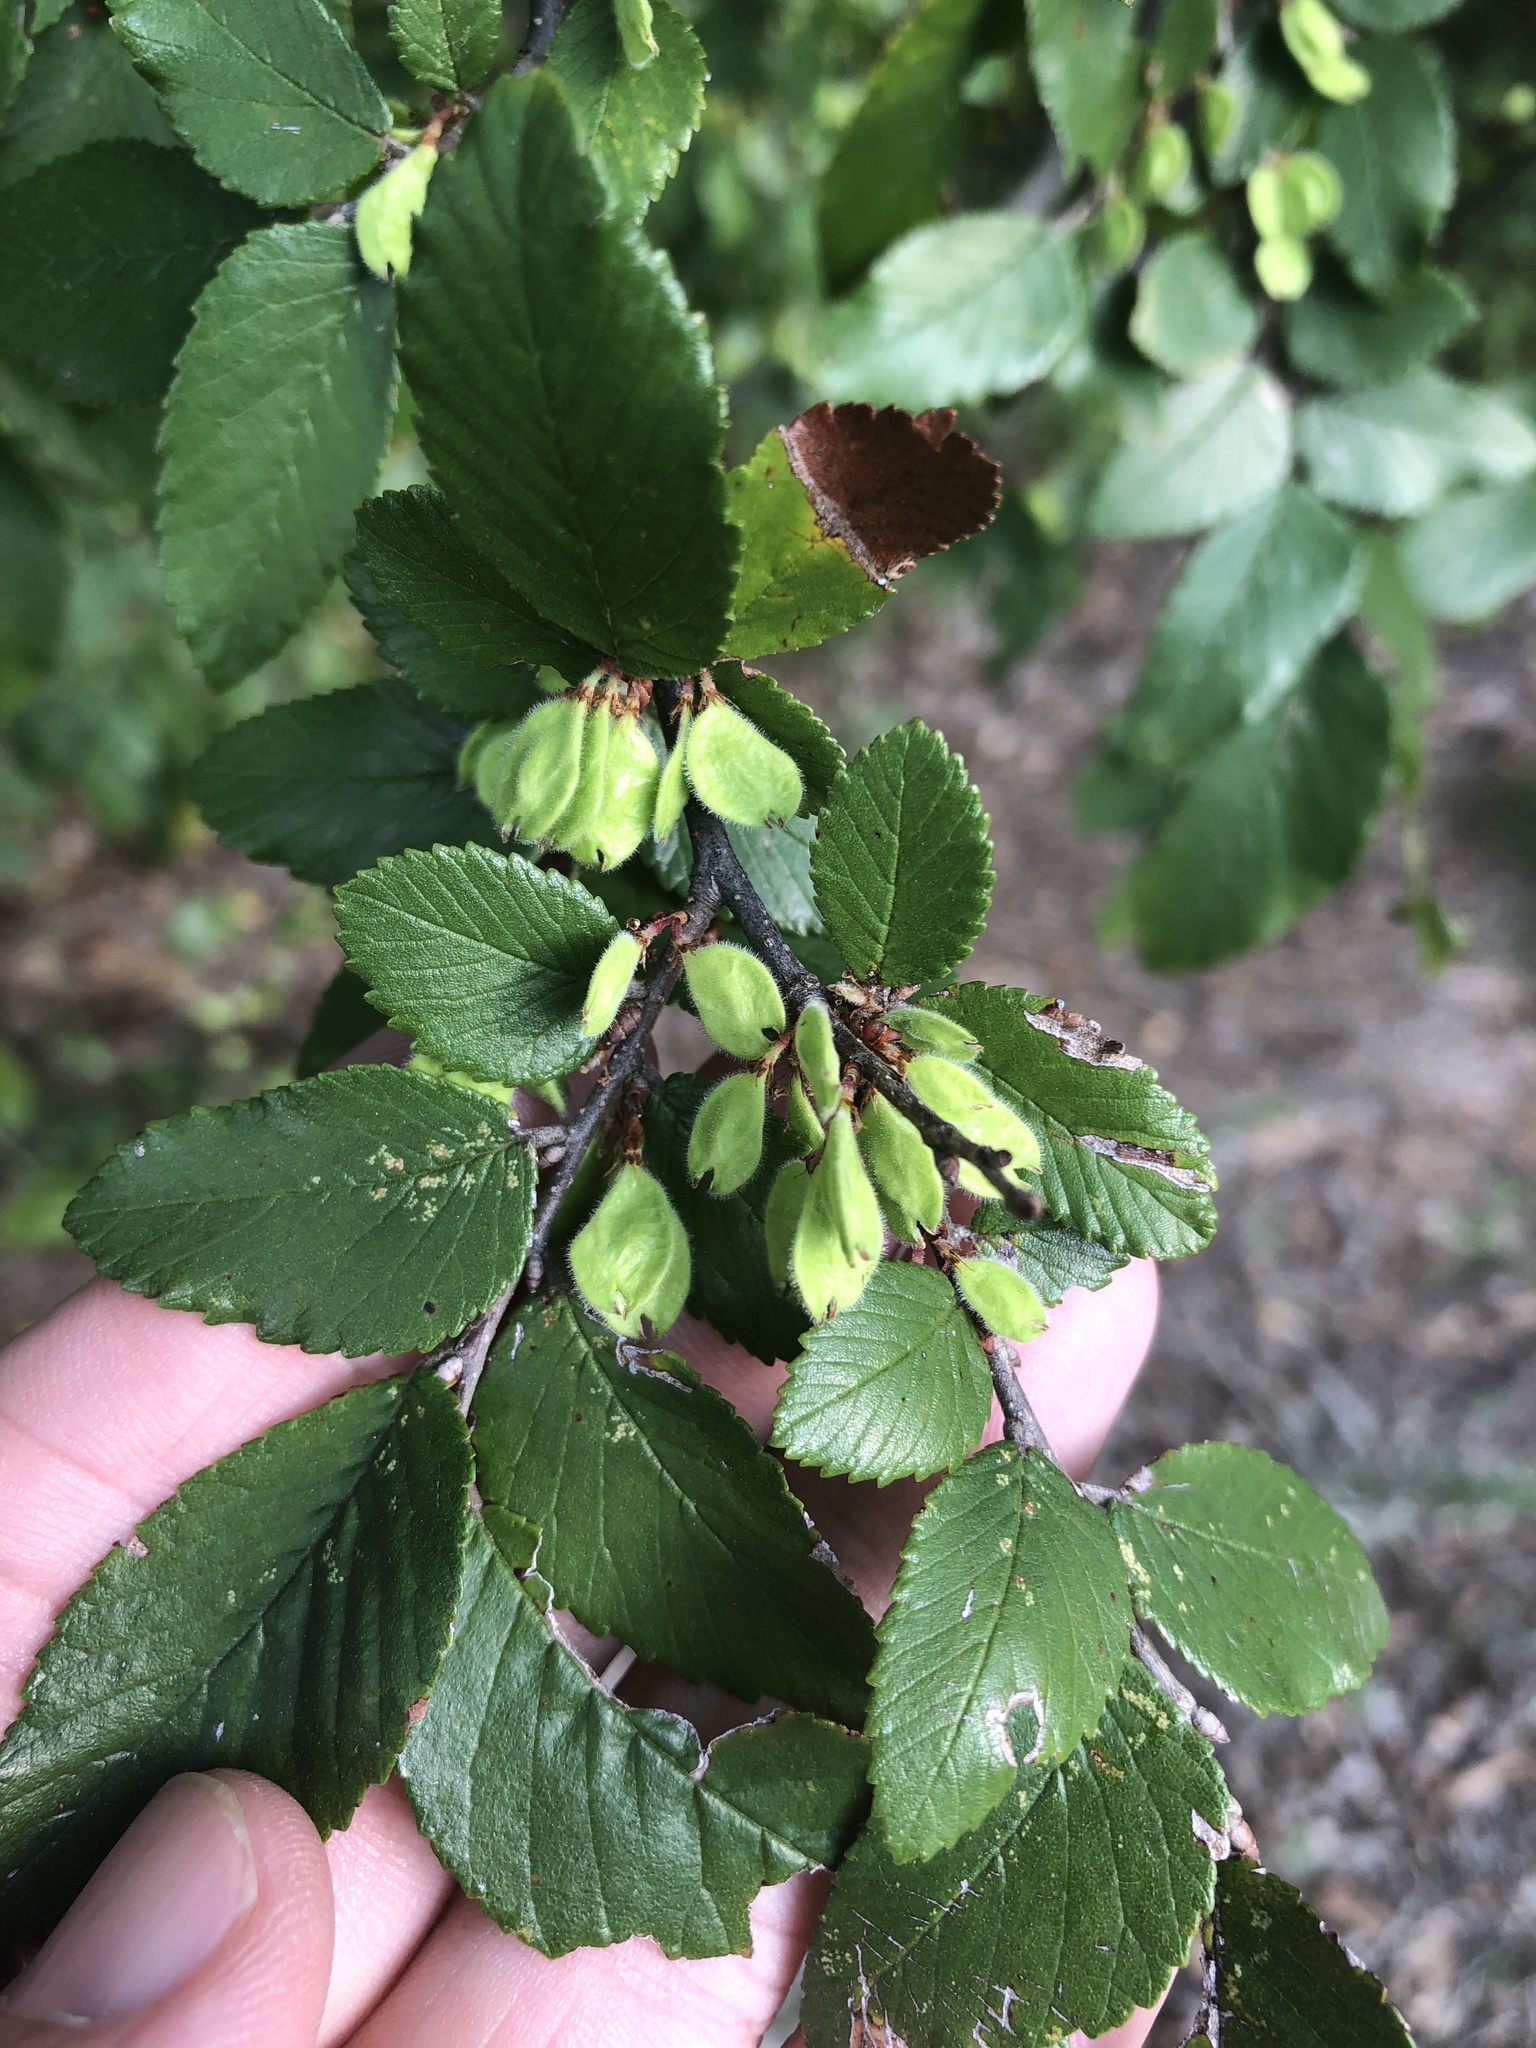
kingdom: Plantae
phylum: Tracheophyta
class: Magnoliopsida
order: Rosales
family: Ulmaceae
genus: Ulmus
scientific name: Ulmus crassifolia
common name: Basket elm
